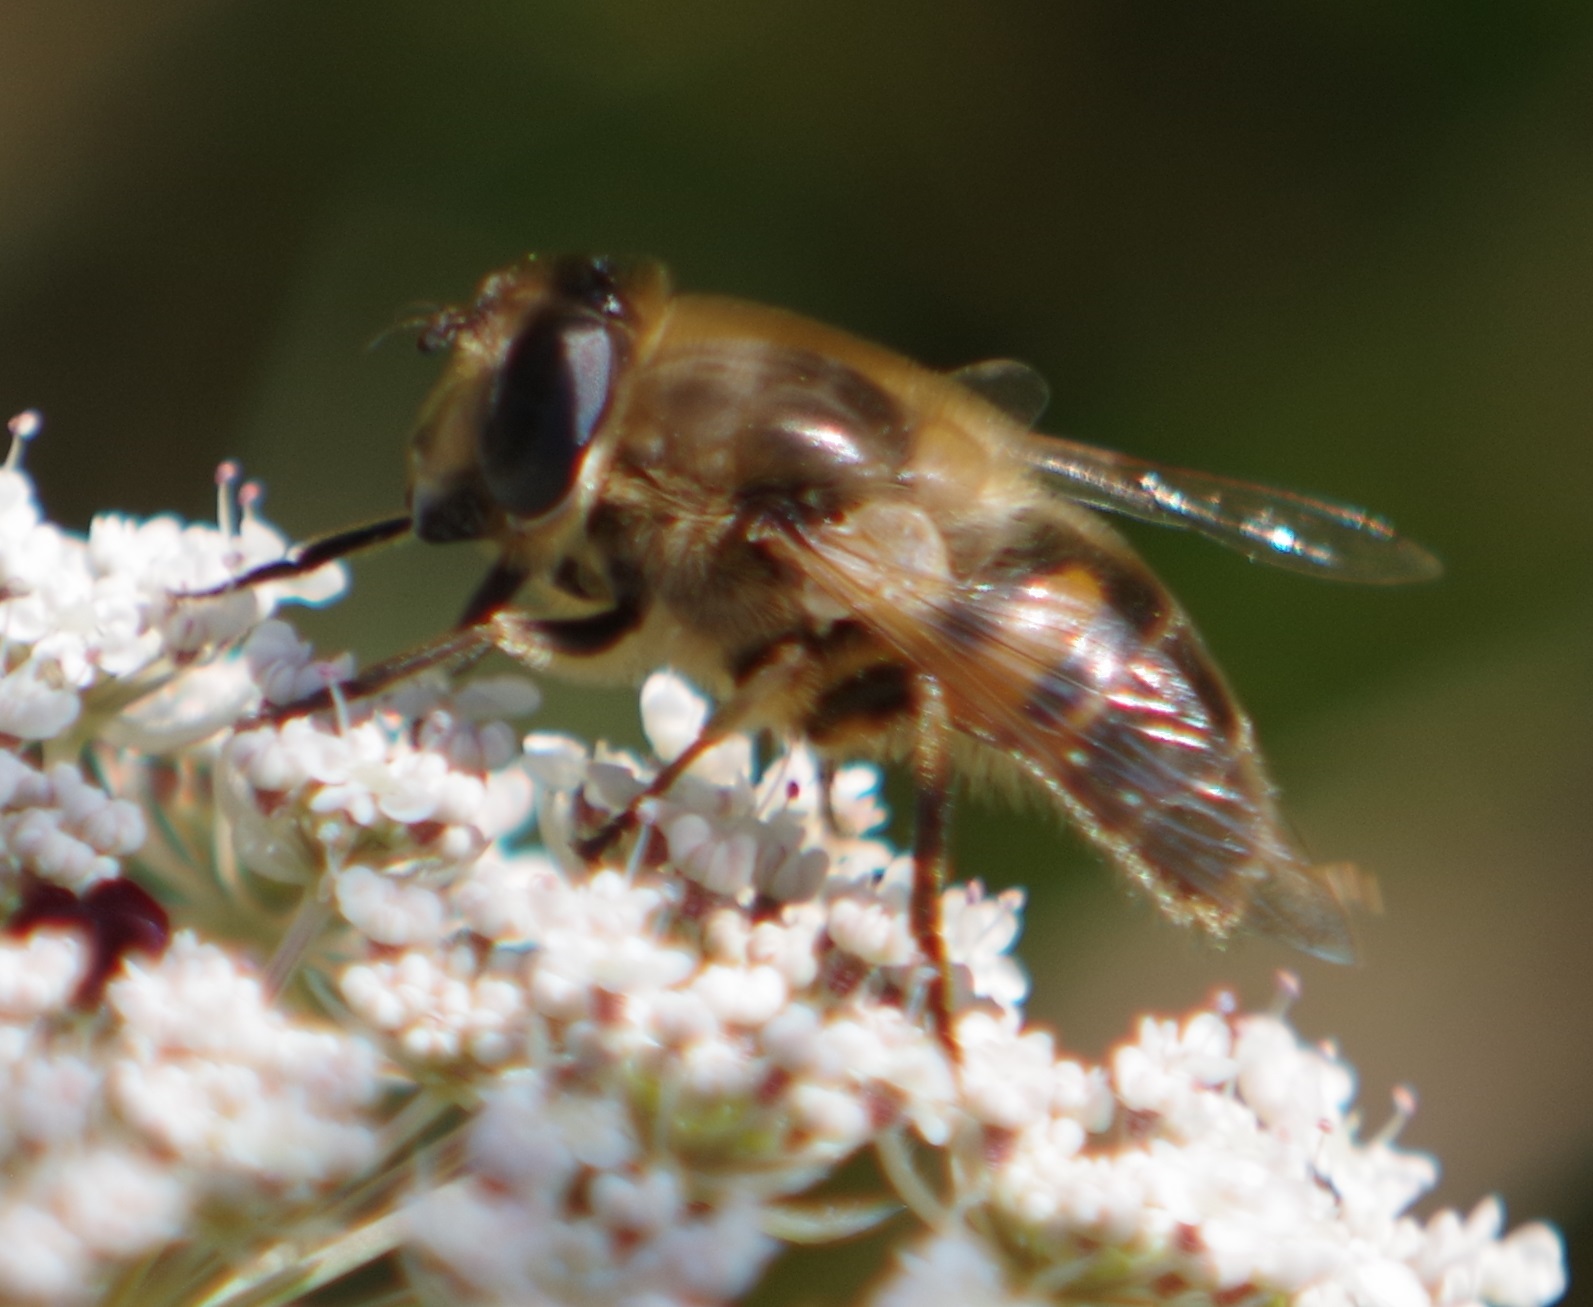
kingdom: Animalia
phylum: Arthropoda
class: Insecta
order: Diptera
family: Syrphidae
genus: Eristalis
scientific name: Eristalis tenax
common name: Drone fly
